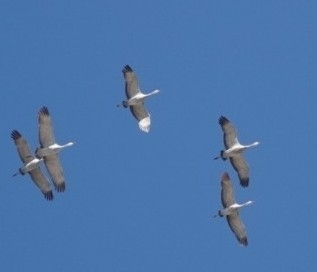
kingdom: Animalia
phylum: Chordata
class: Aves
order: Gruiformes
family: Gruidae
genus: Grus
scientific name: Grus canadensis
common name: Sandhill crane
